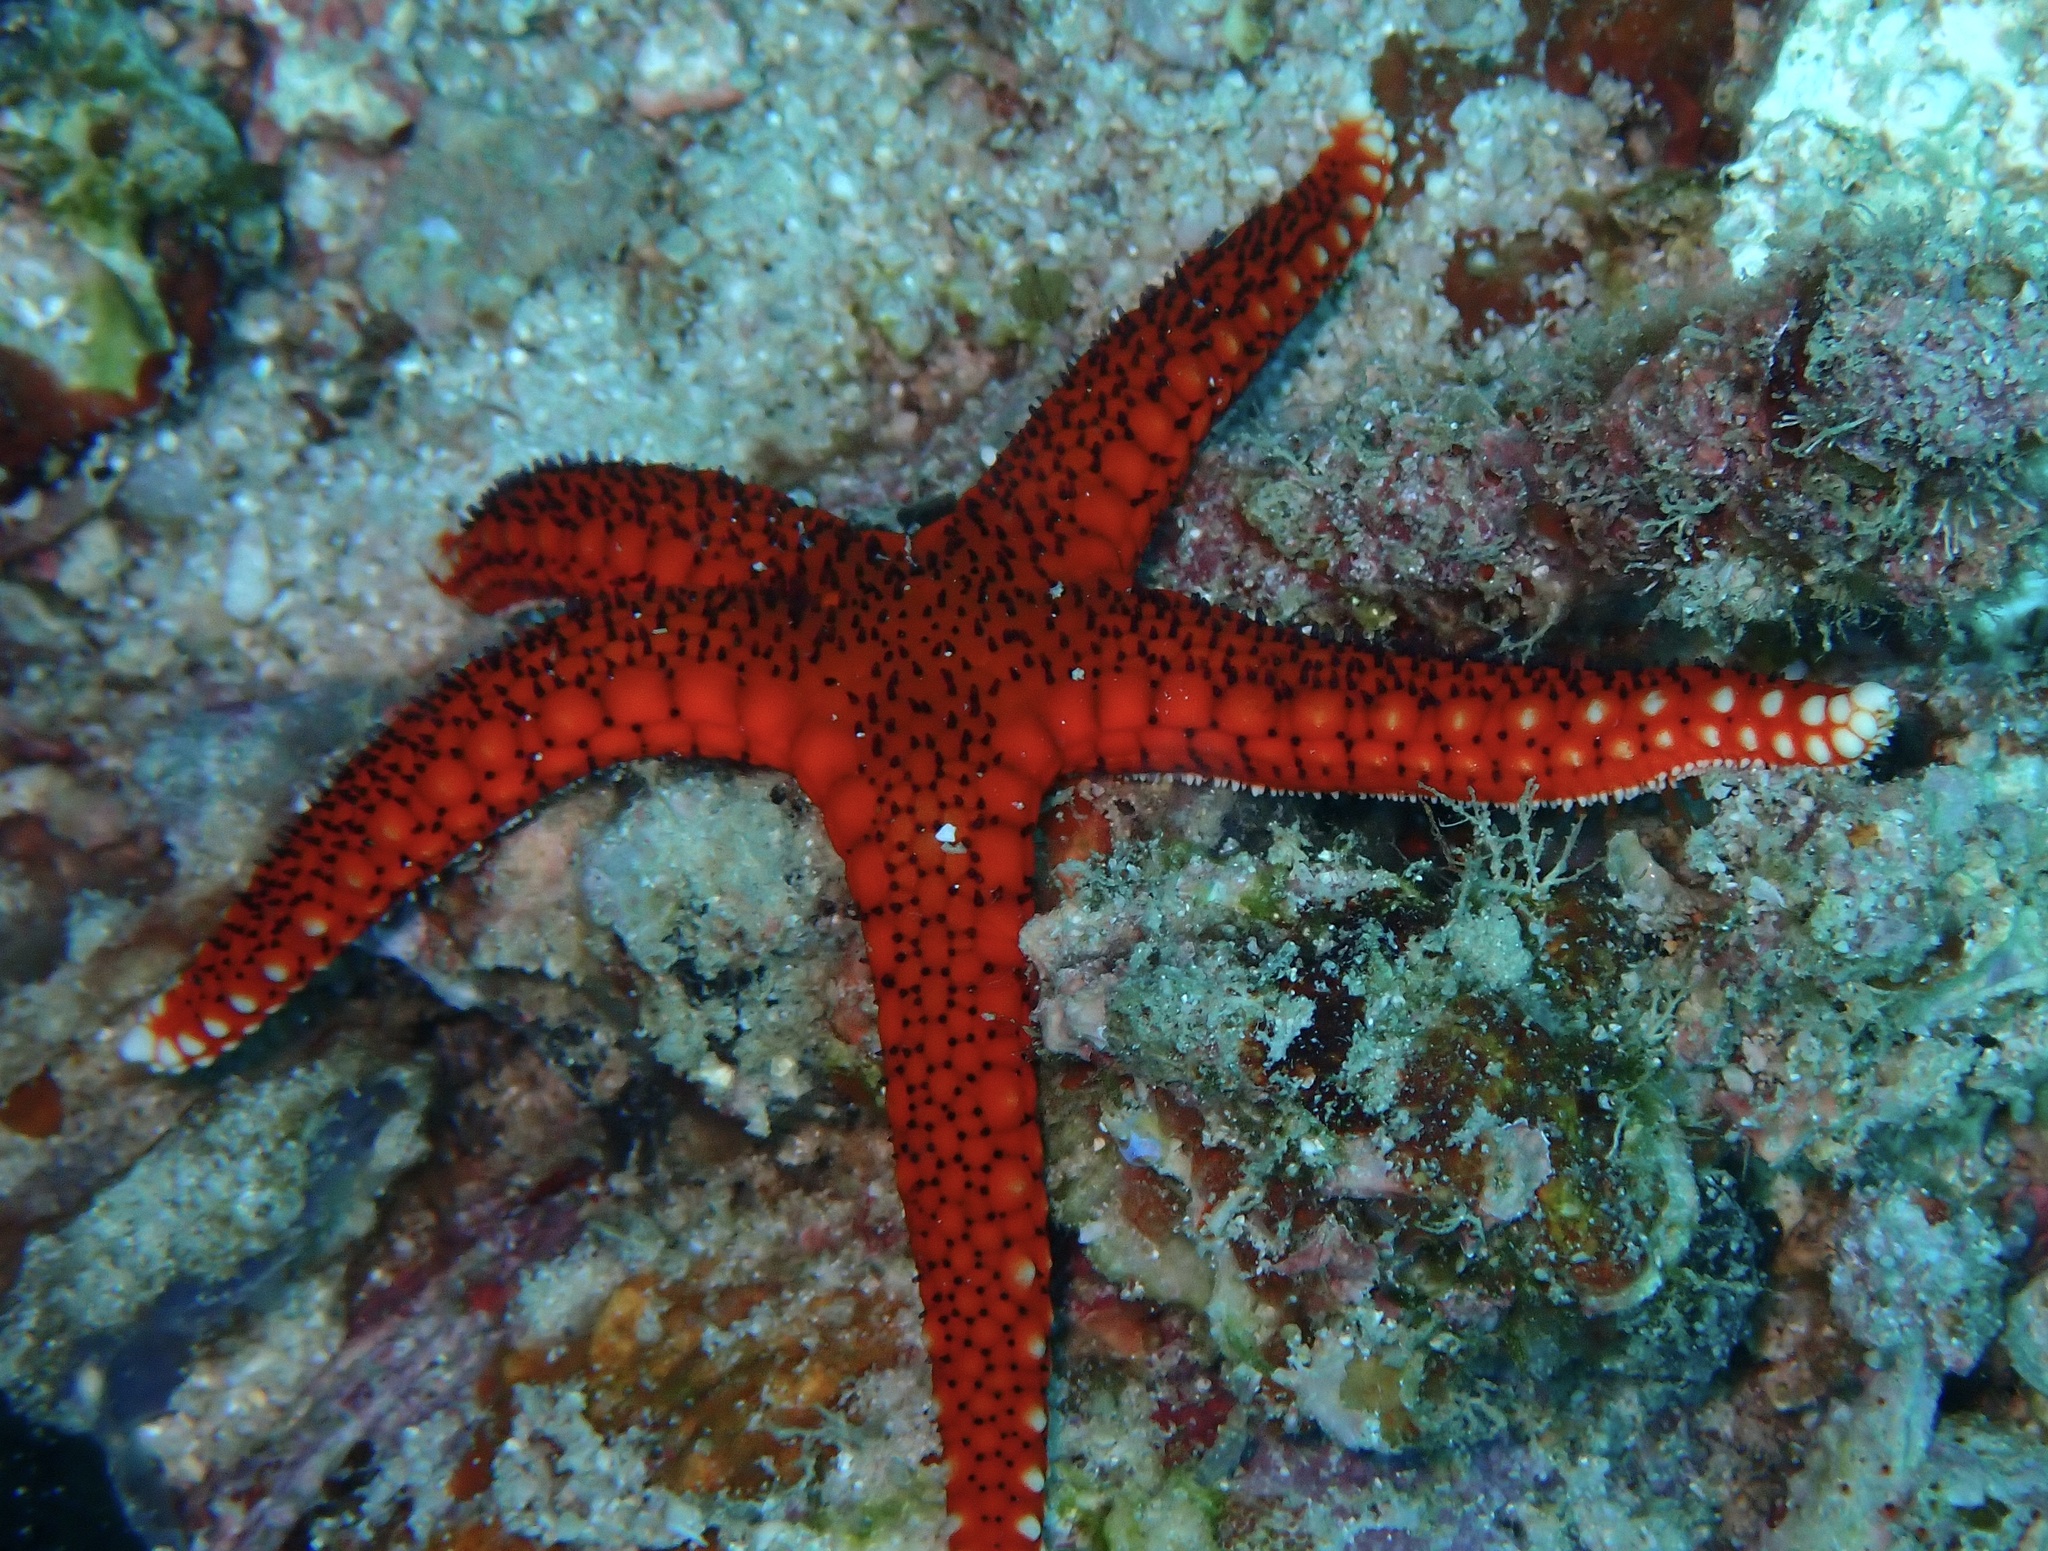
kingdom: Animalia
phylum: Echinodermata
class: Asteroidea
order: Valvatida
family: Goniasteridae
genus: Fromia
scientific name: Fromia monilis
